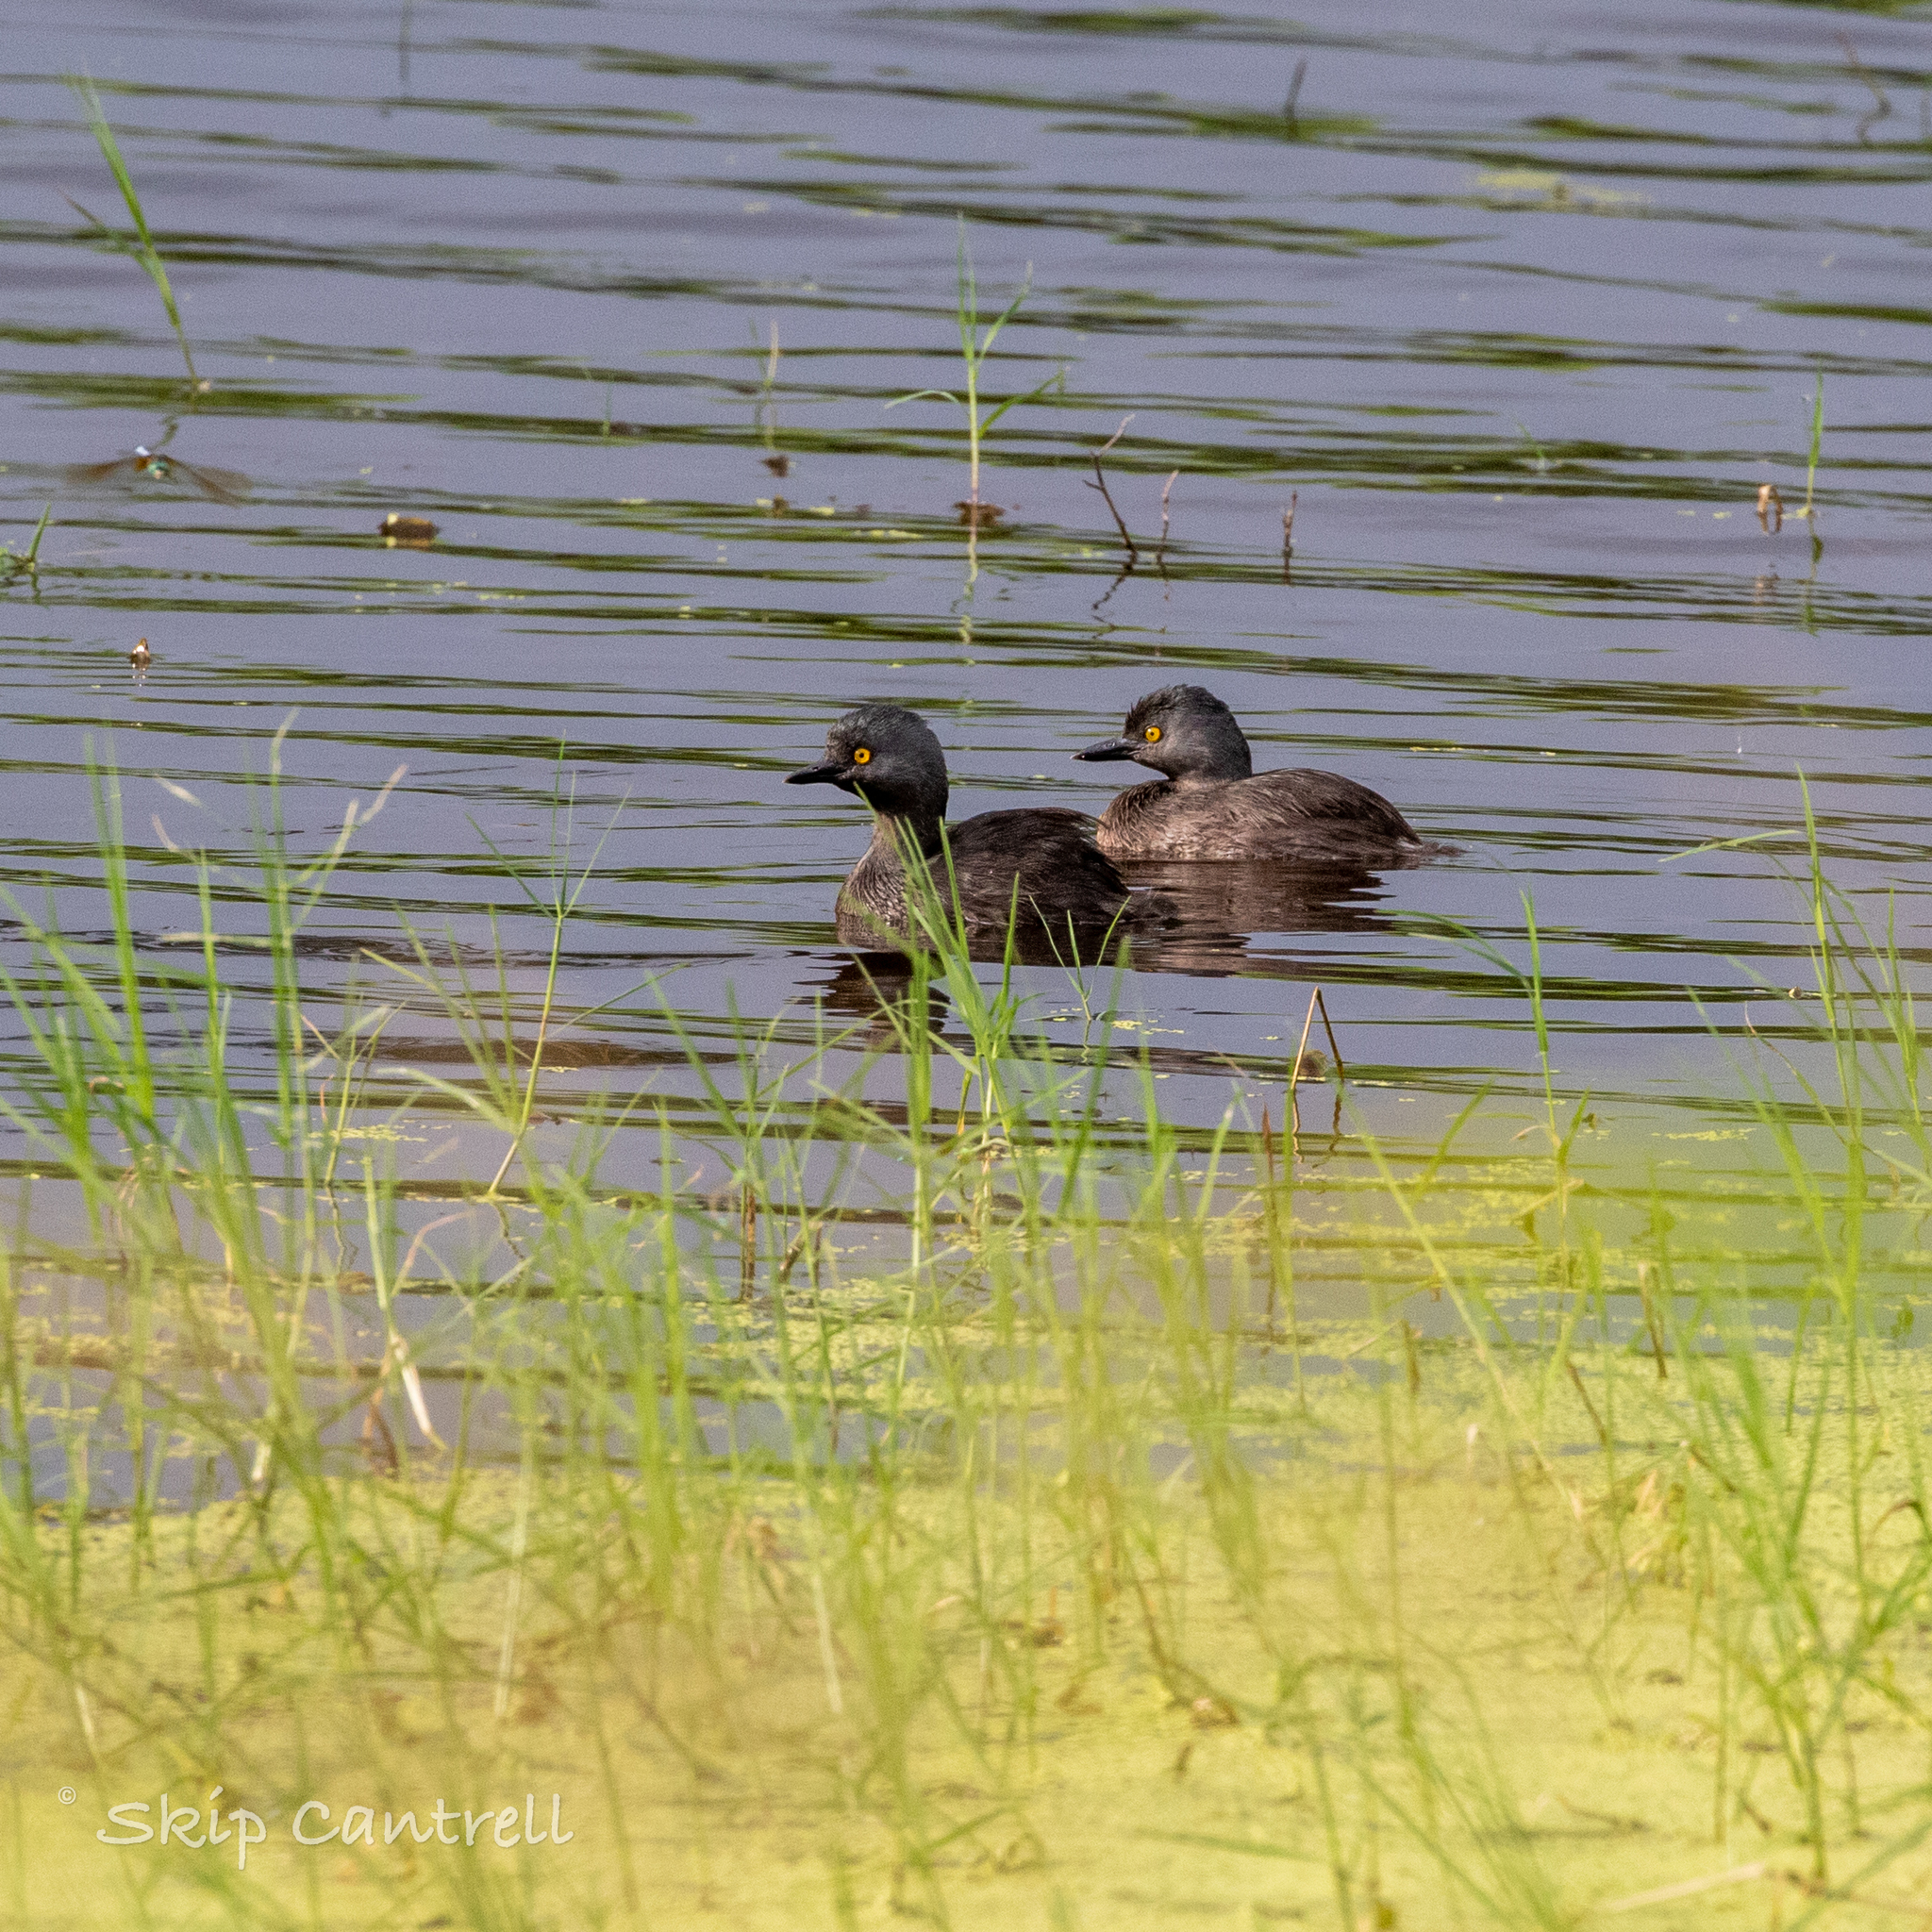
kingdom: Animalia
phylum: Chordata
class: Aves
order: Podicipediformes
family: Podicipedidae
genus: Tachybaptus
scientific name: Tachybaptus dominicus
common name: Least grebe
